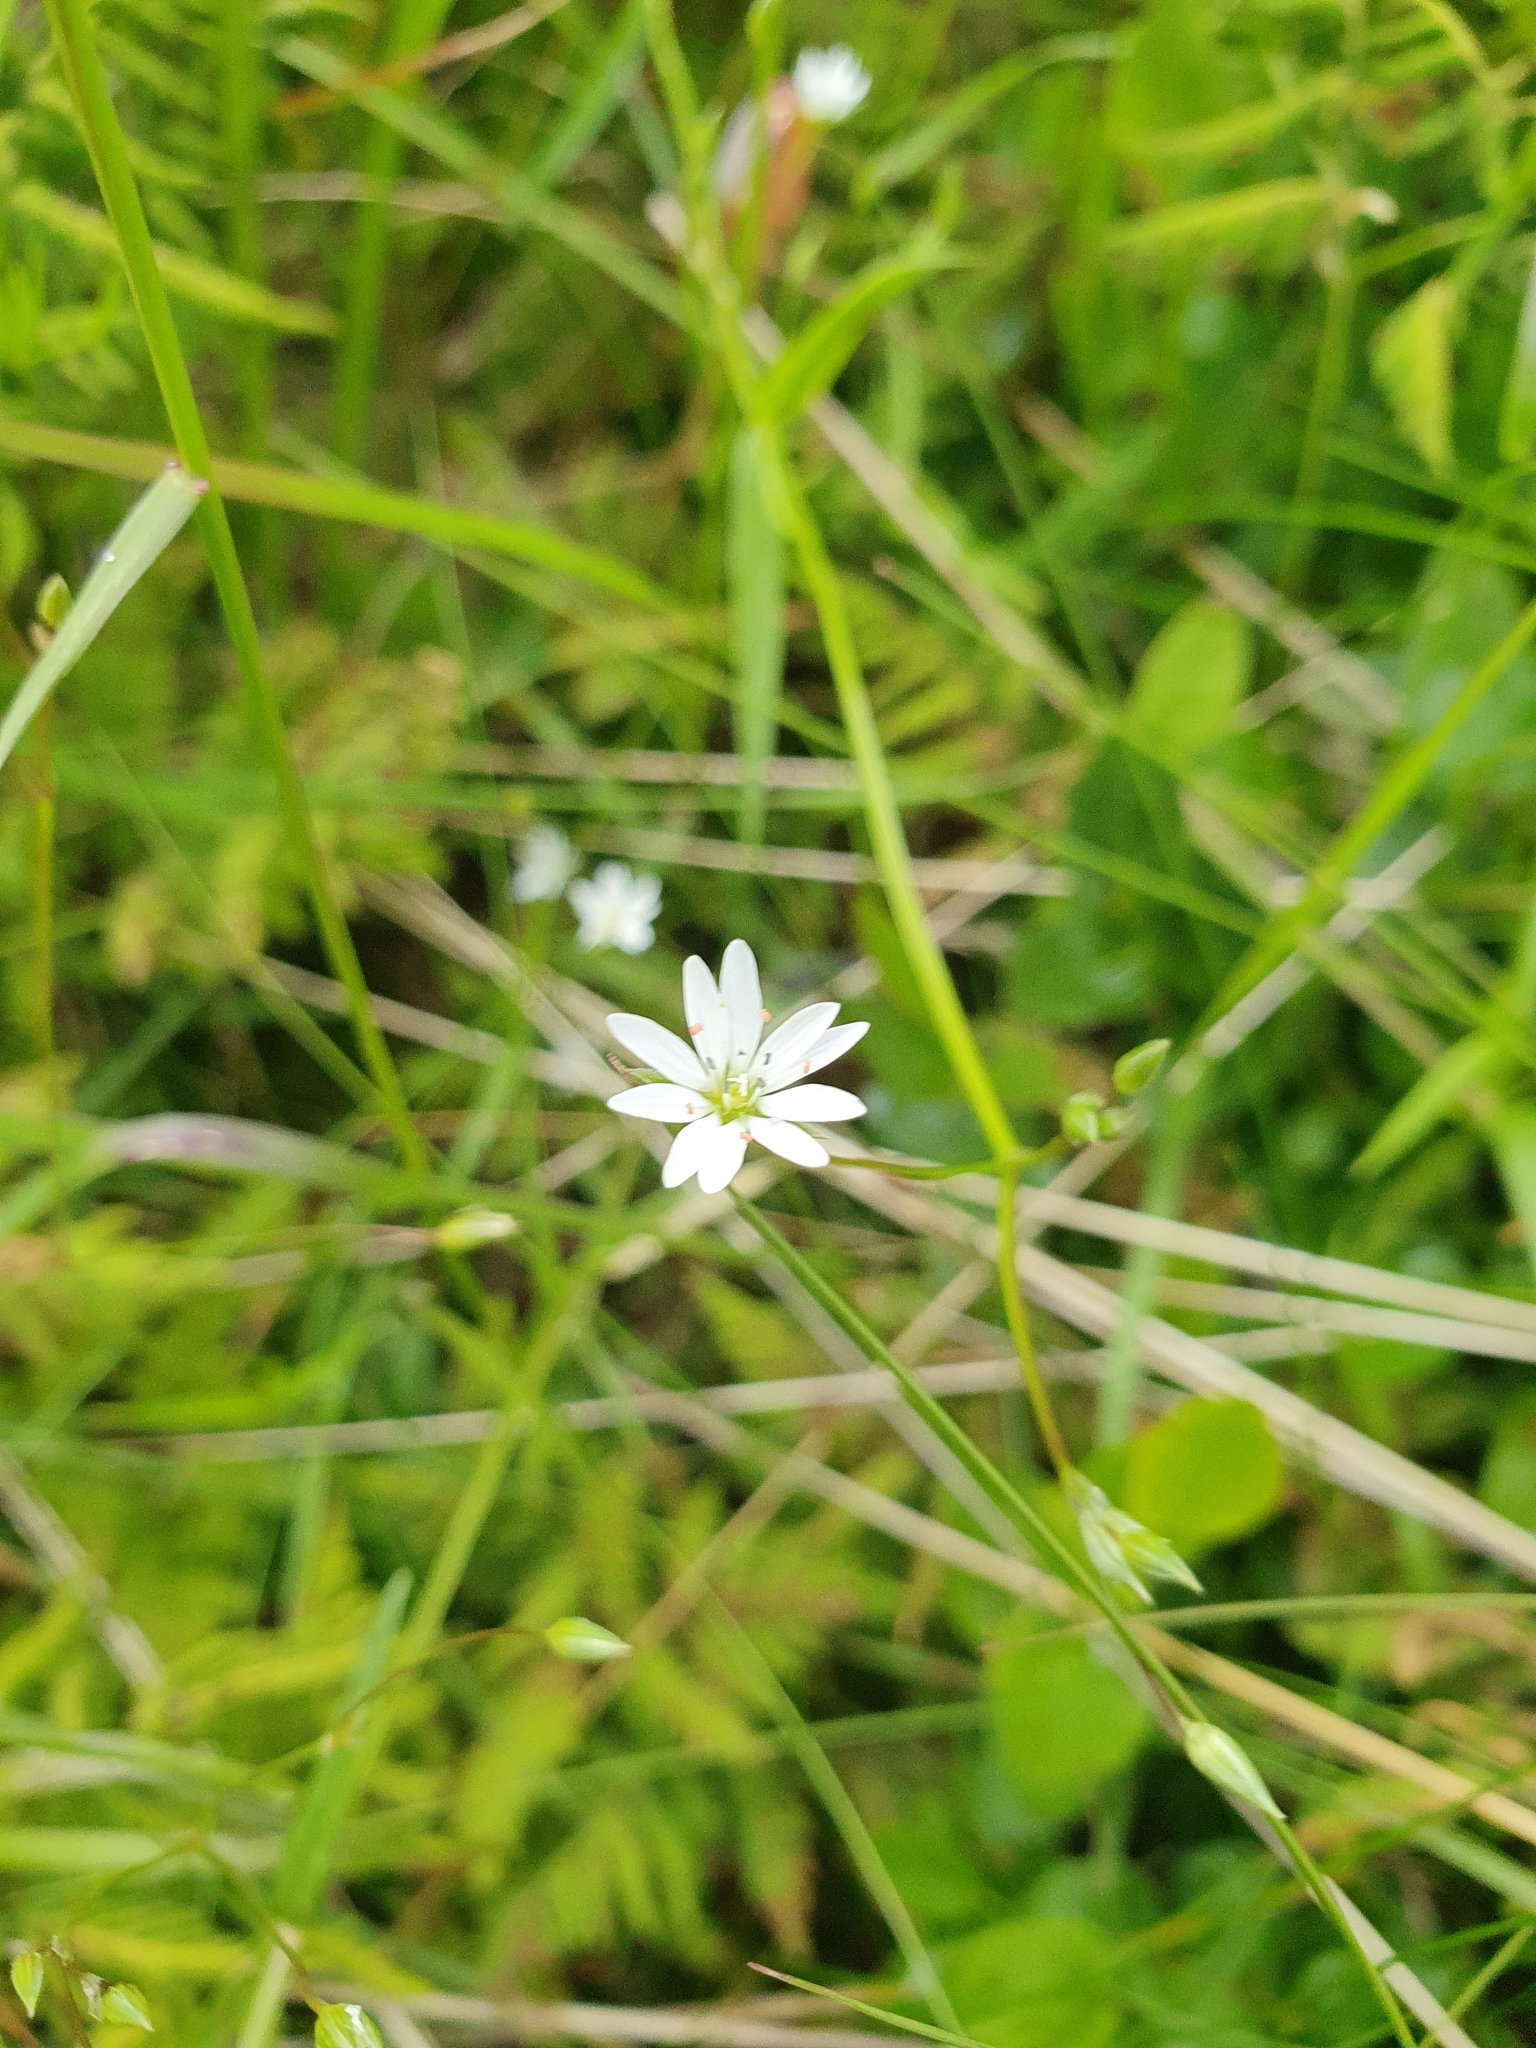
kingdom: Plantae
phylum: Tracheophyta
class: Magnoliopsida
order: Caryophyllales
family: Caryophyllaceae
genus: Stellaria
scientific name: Stellaria graminea
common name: Grass-like starwort
